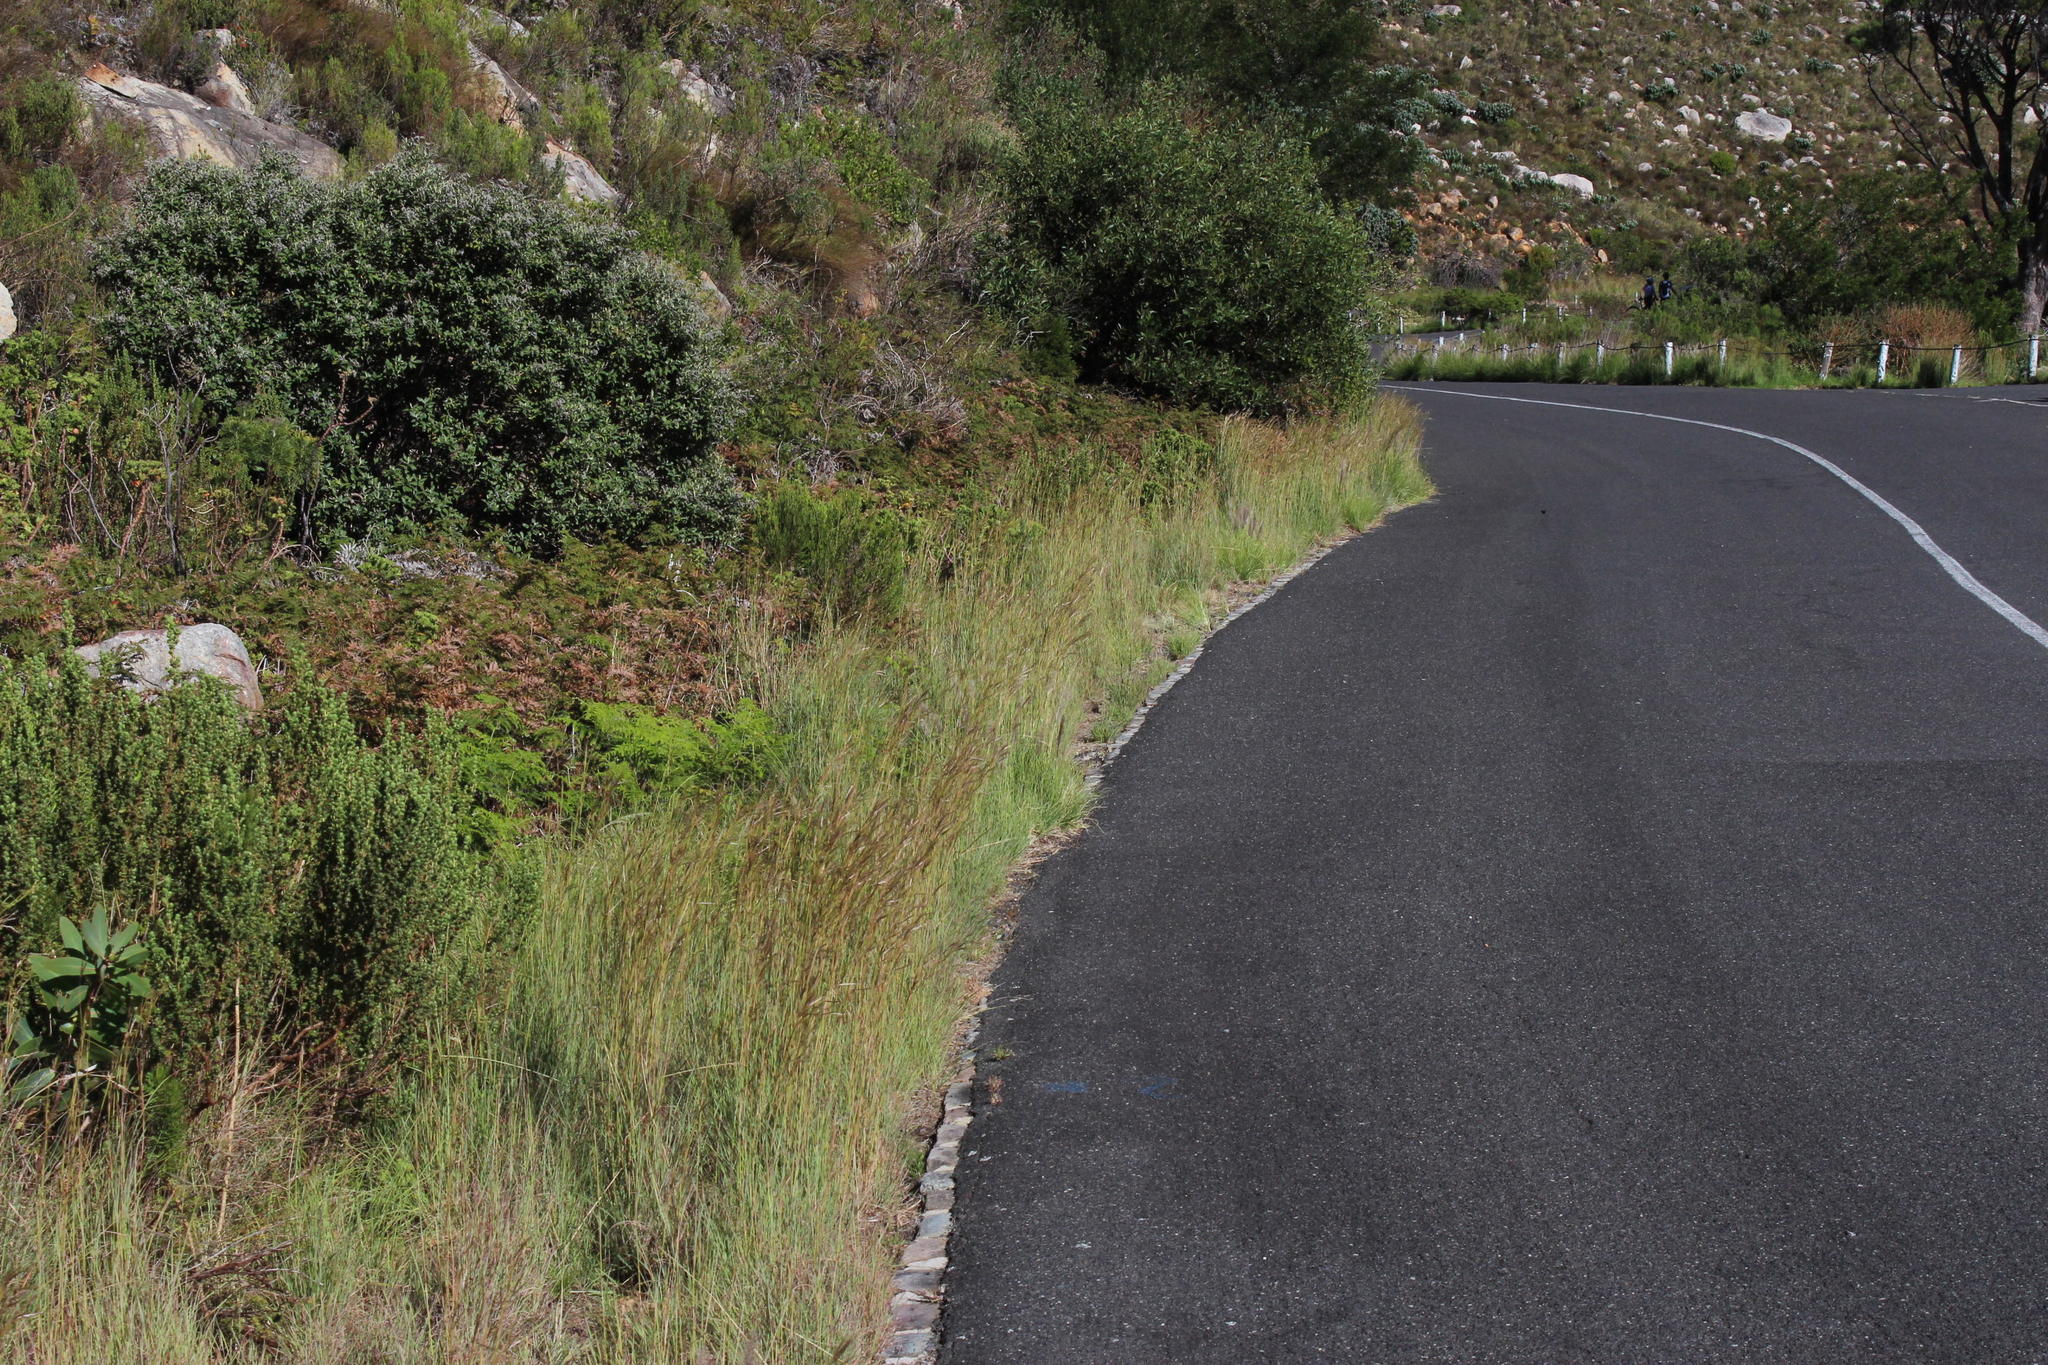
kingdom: Plantae
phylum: Tracheophyta
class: Liliopsida
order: Poales
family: Poaceae
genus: Hyparrhenia
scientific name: Hyparrhenia hirta
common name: Thatching grass
